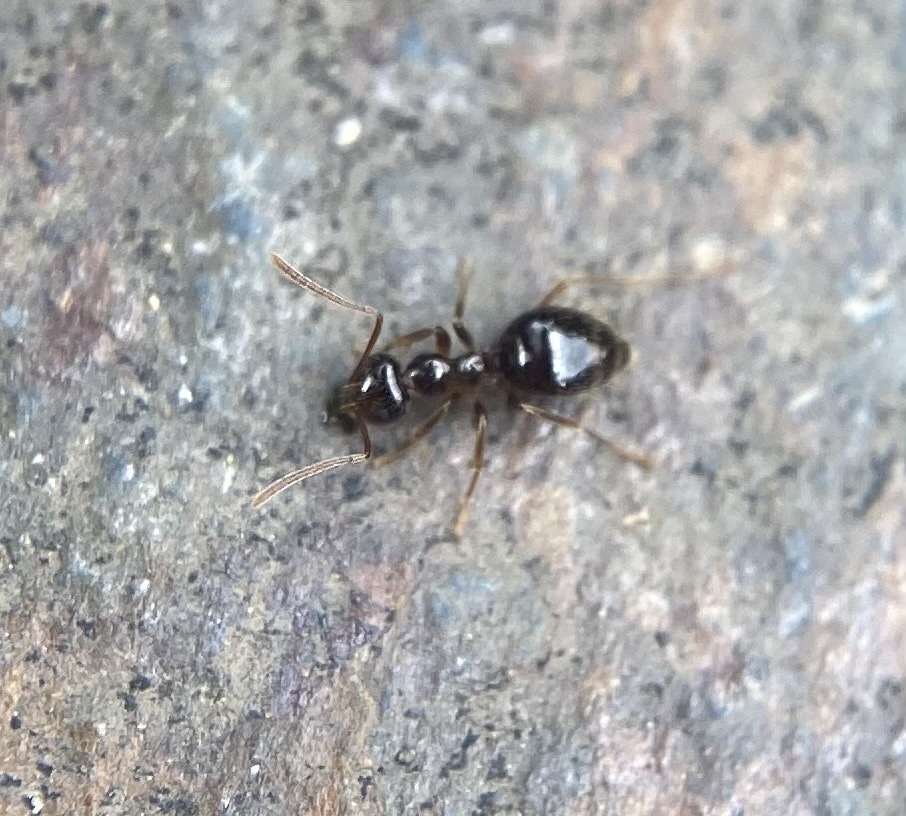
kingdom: Animalia
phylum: Arthropoda
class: Insecta
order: Hymenoptera
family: Formicidae
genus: Prenolepis
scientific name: Prenolepis imparis
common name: Small honey ant
